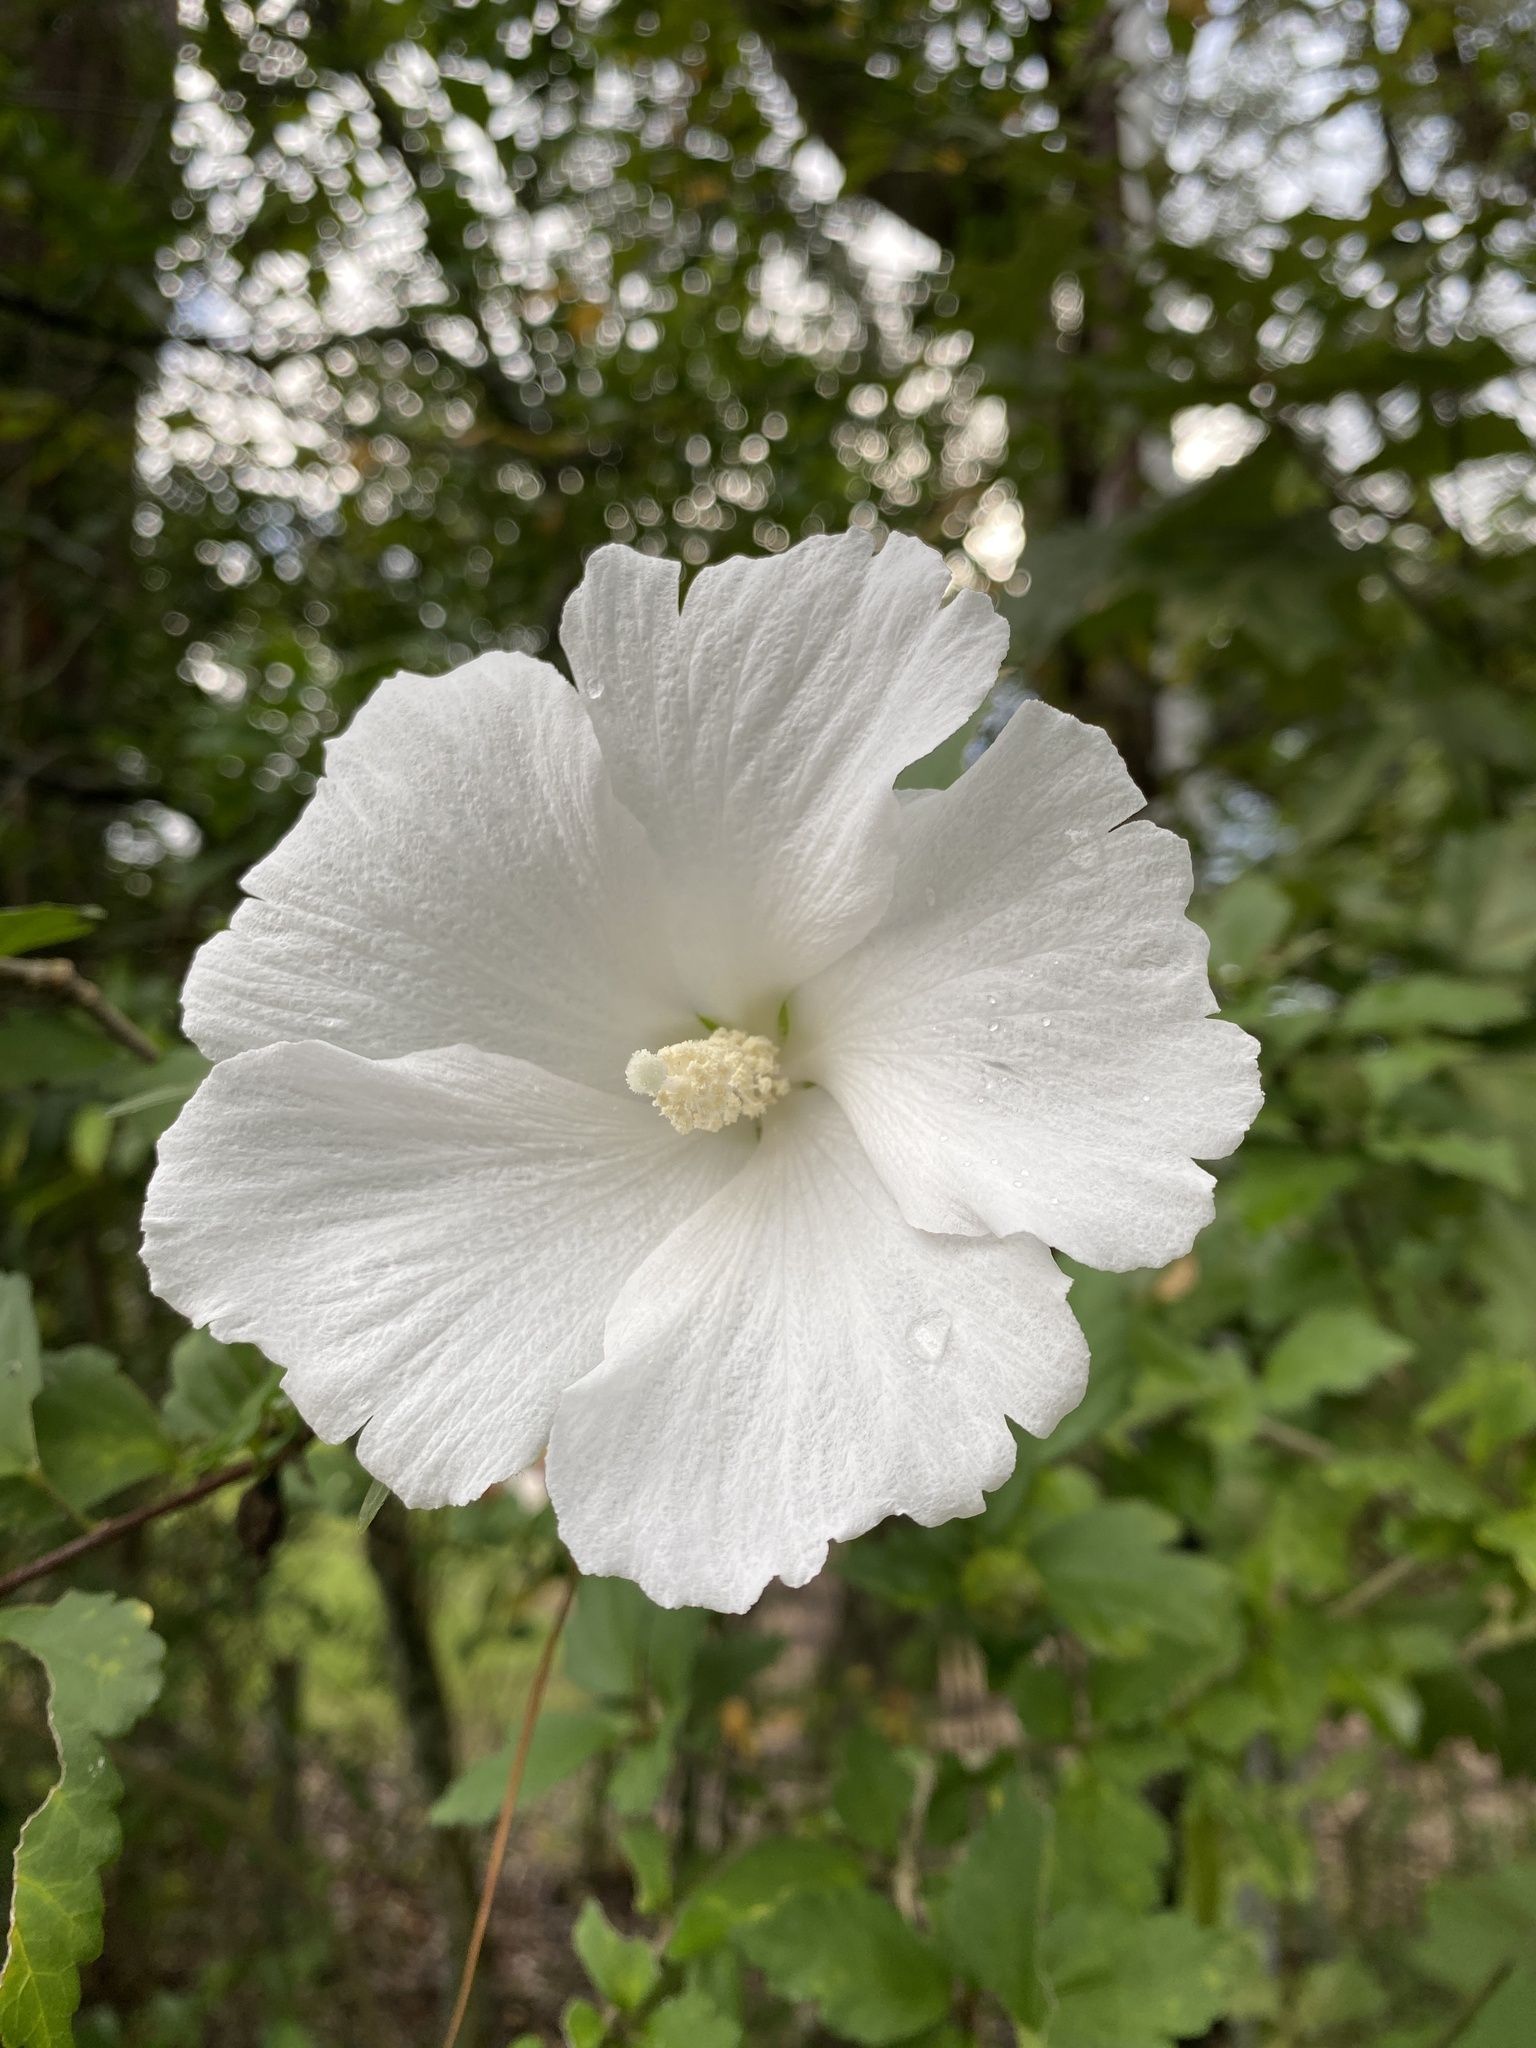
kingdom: Plantae
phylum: Tracheophyta
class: Magnoliopsida
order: Malvales
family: Malvaceae
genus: Hibiscus
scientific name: Hibiscus syriacus
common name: Syrian ketmia
